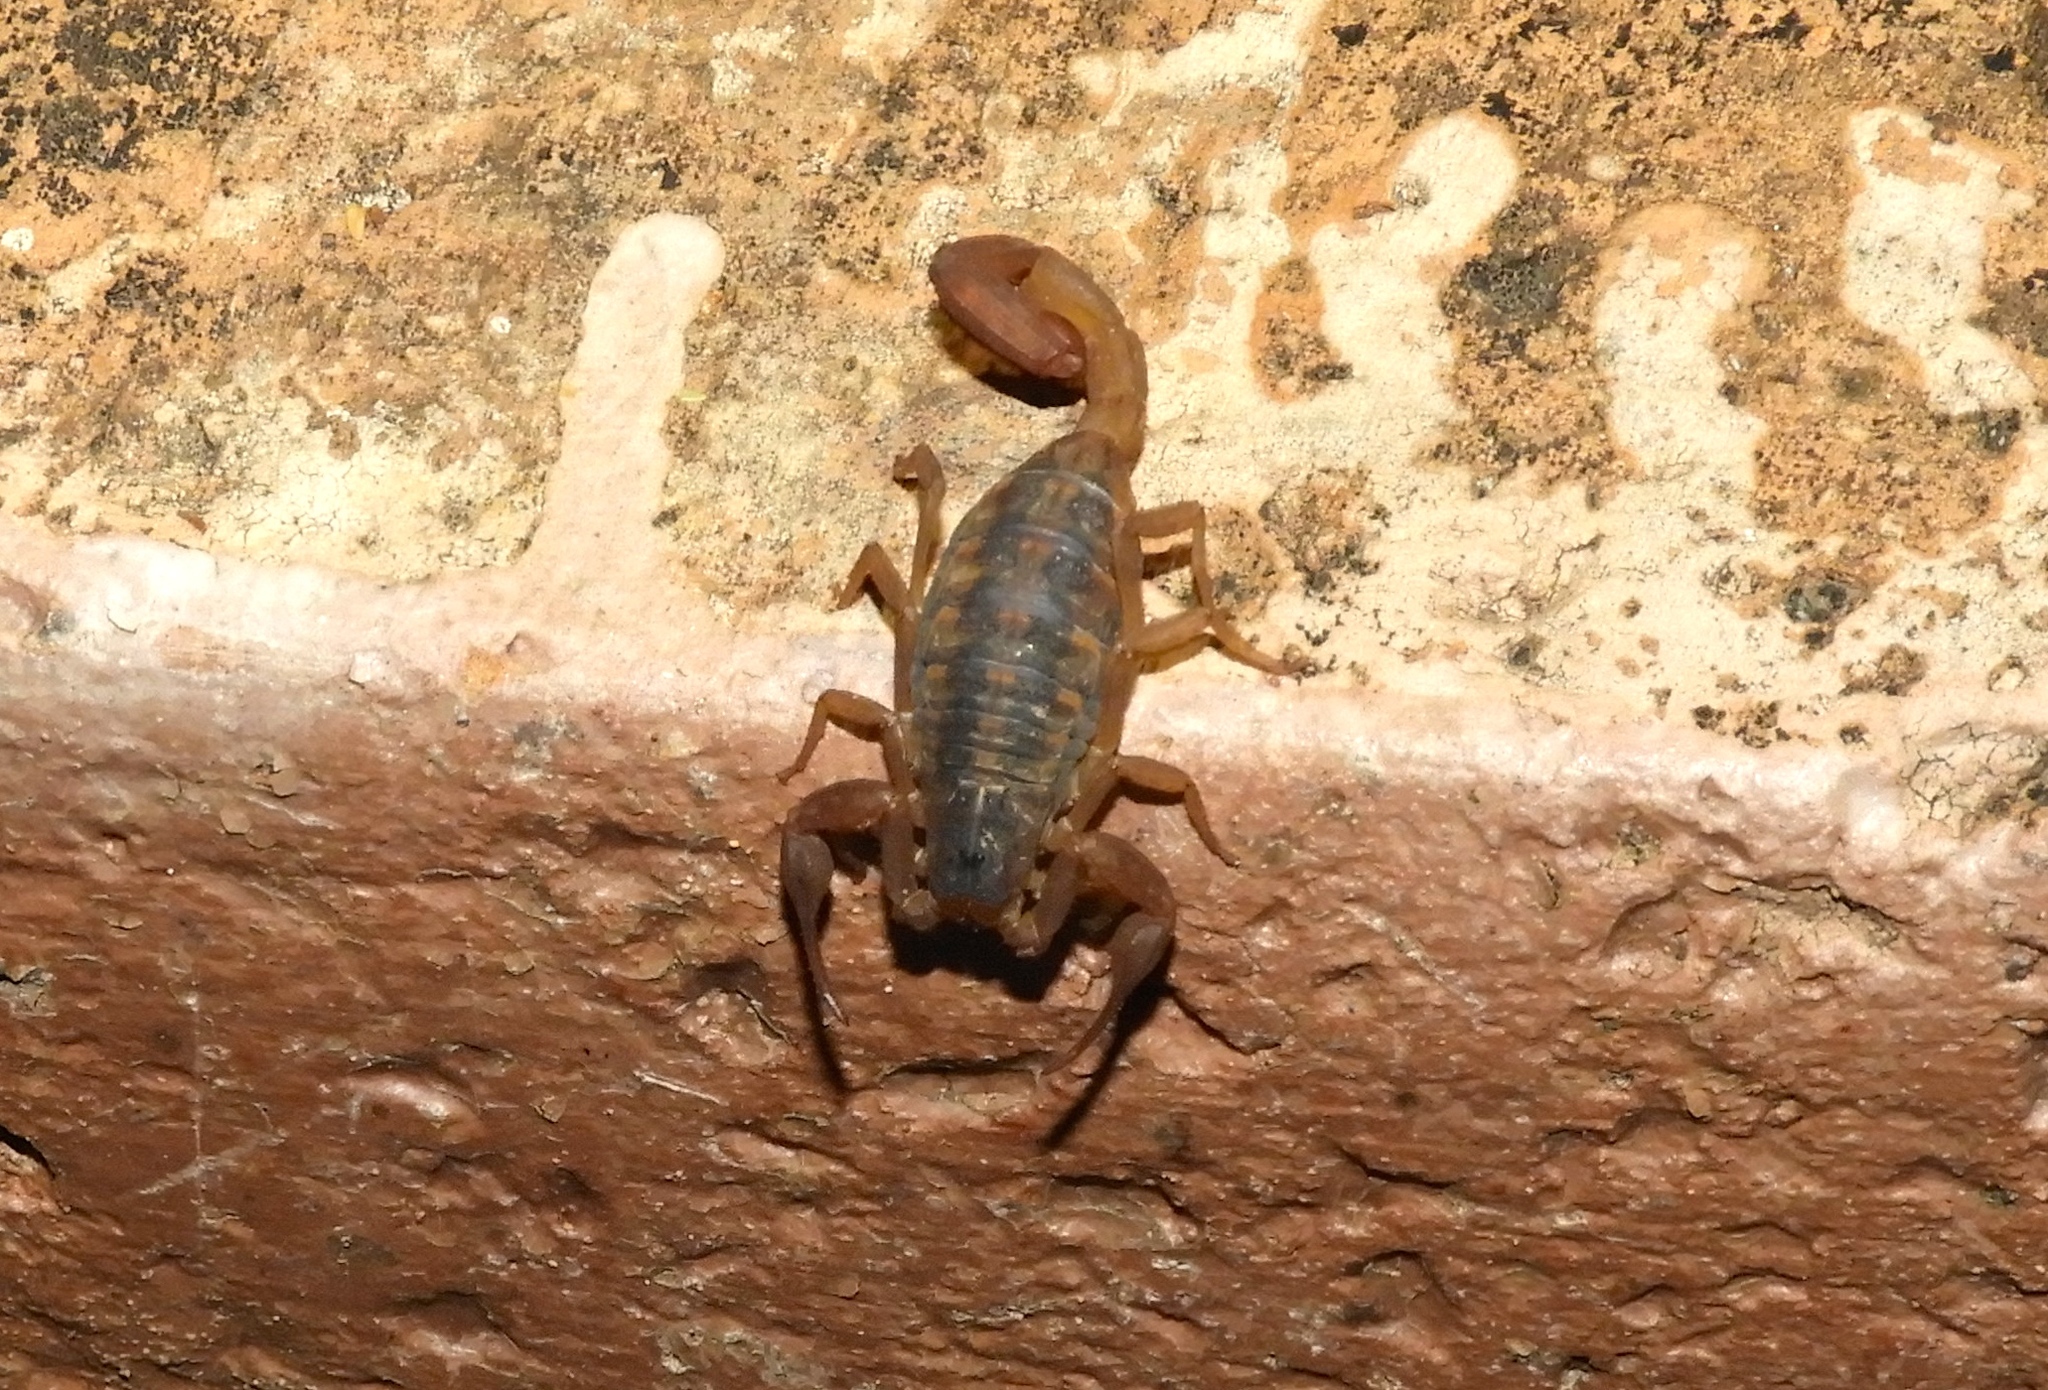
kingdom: Animalia
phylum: Arthropoda
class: Arachnida
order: Scorpiones
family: Buthidae
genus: Centruroides
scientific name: Centruroides
